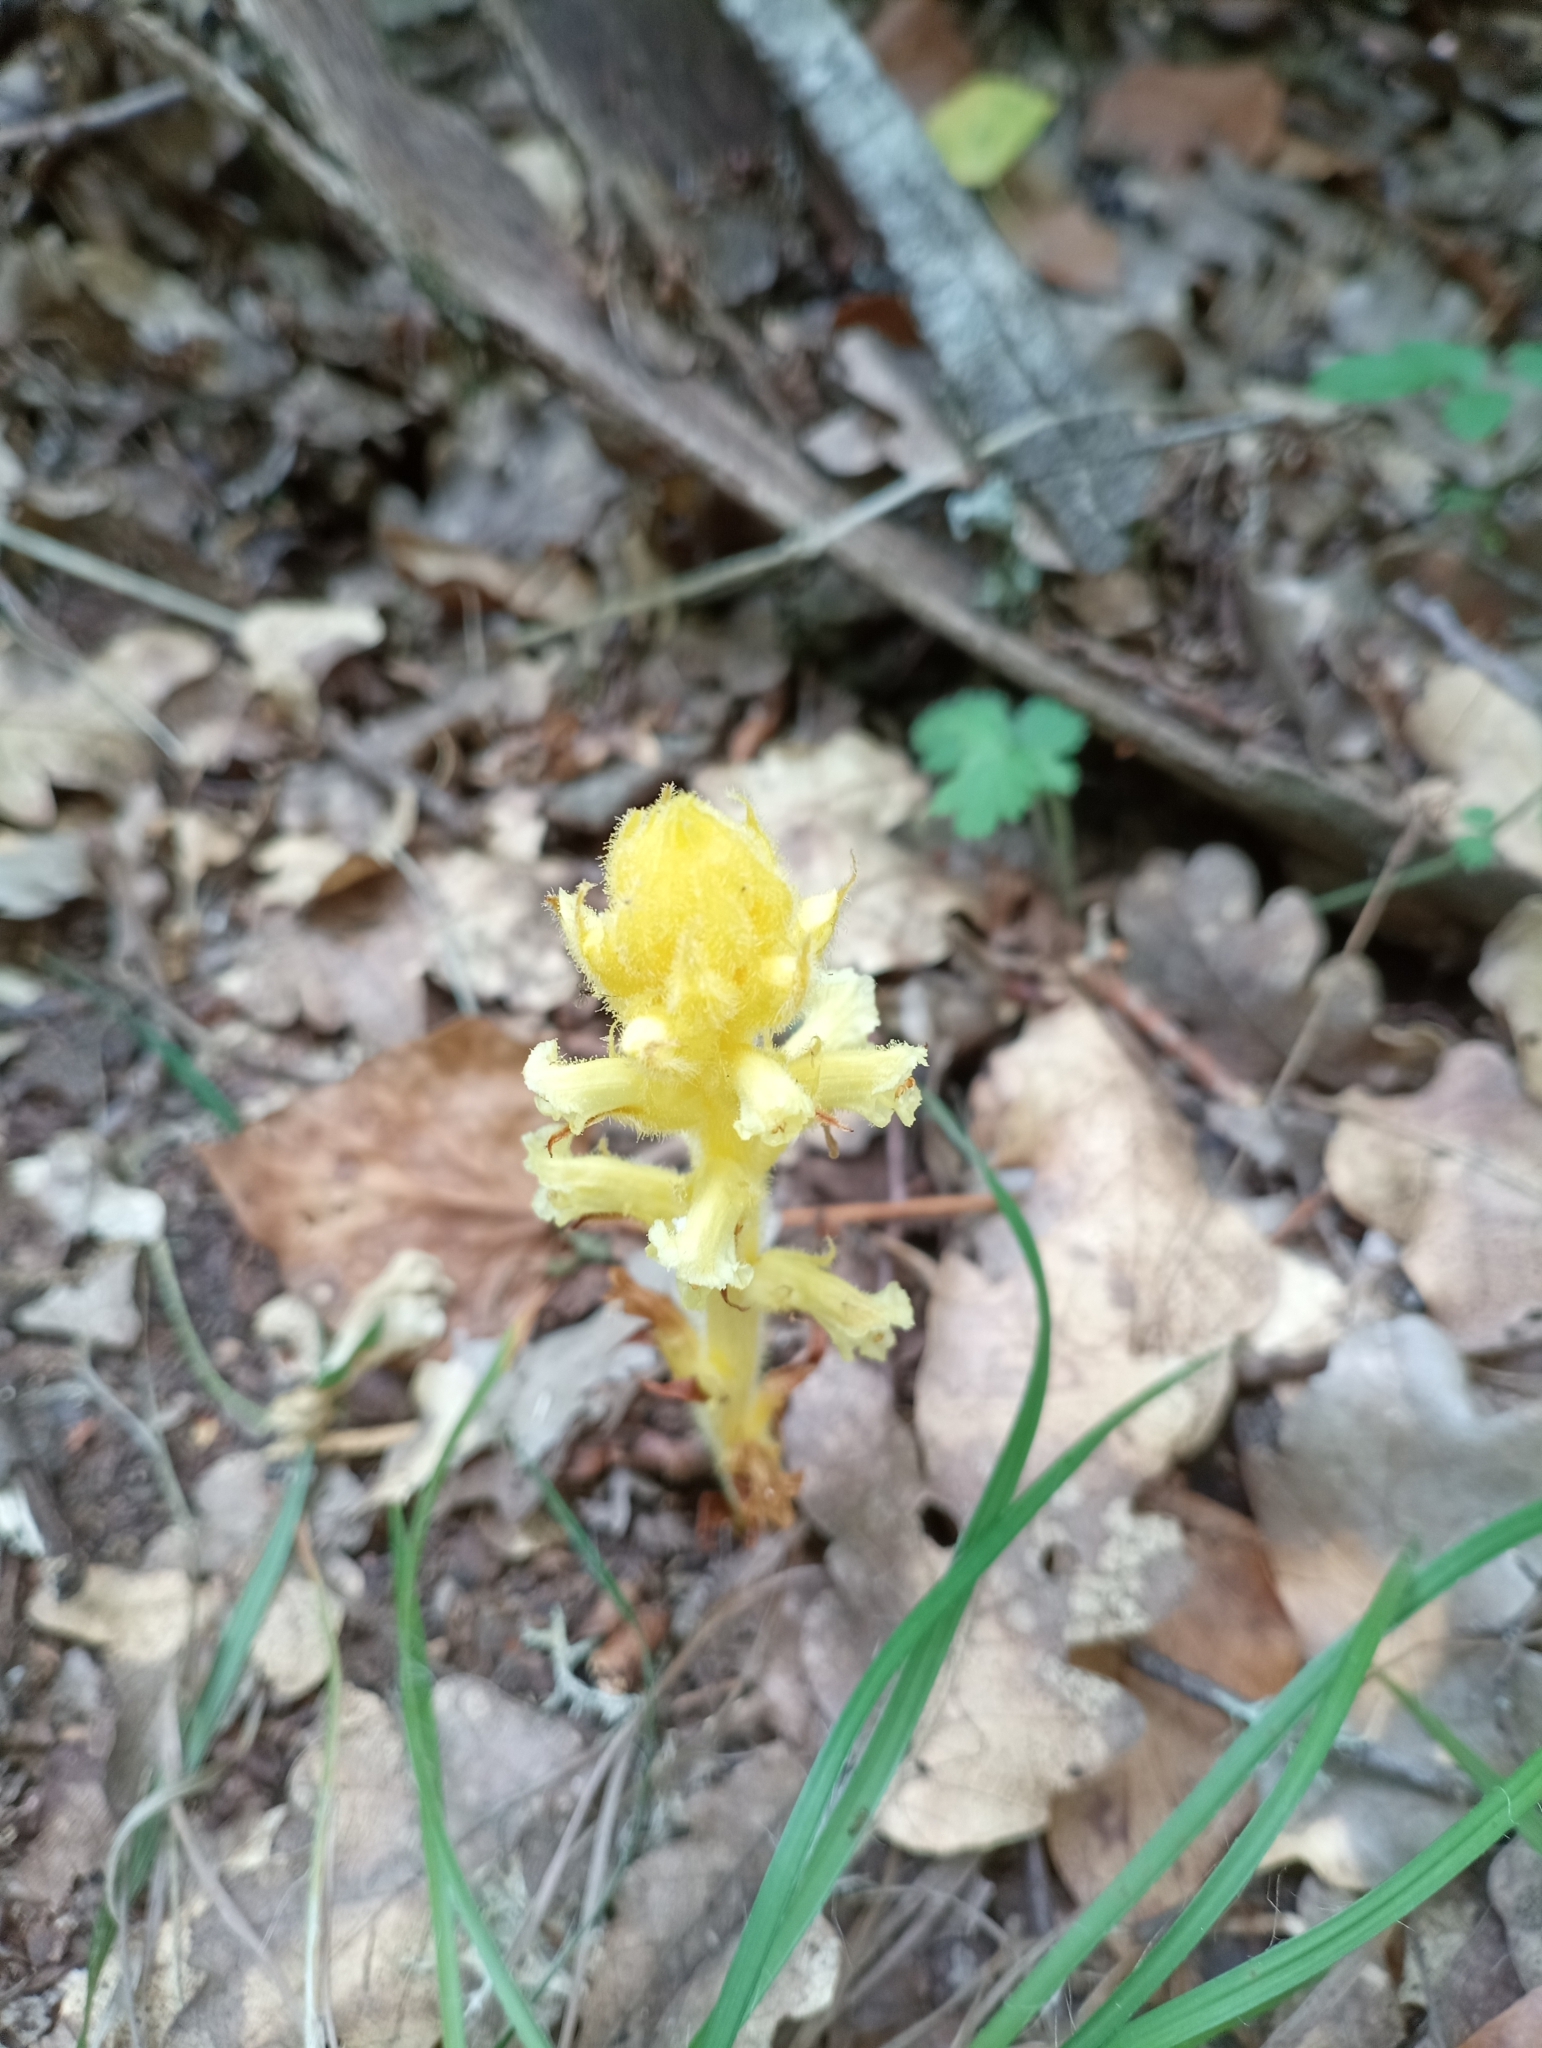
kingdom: Plantae
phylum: Tracheophyta
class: Magnoliopsida
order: Lamiales
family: Orobanchaceae
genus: Orobanche
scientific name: Orobanche hederae
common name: Ivy broomrape
